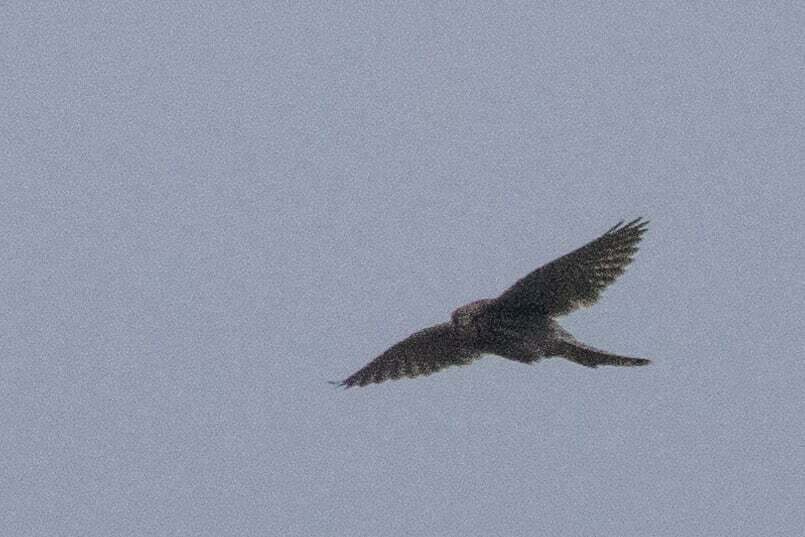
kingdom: Animalia
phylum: Chordata
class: Aves
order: Falconiformes
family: Falconidae
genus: Falco
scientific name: Falco tinnunculus
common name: Common kestrel
